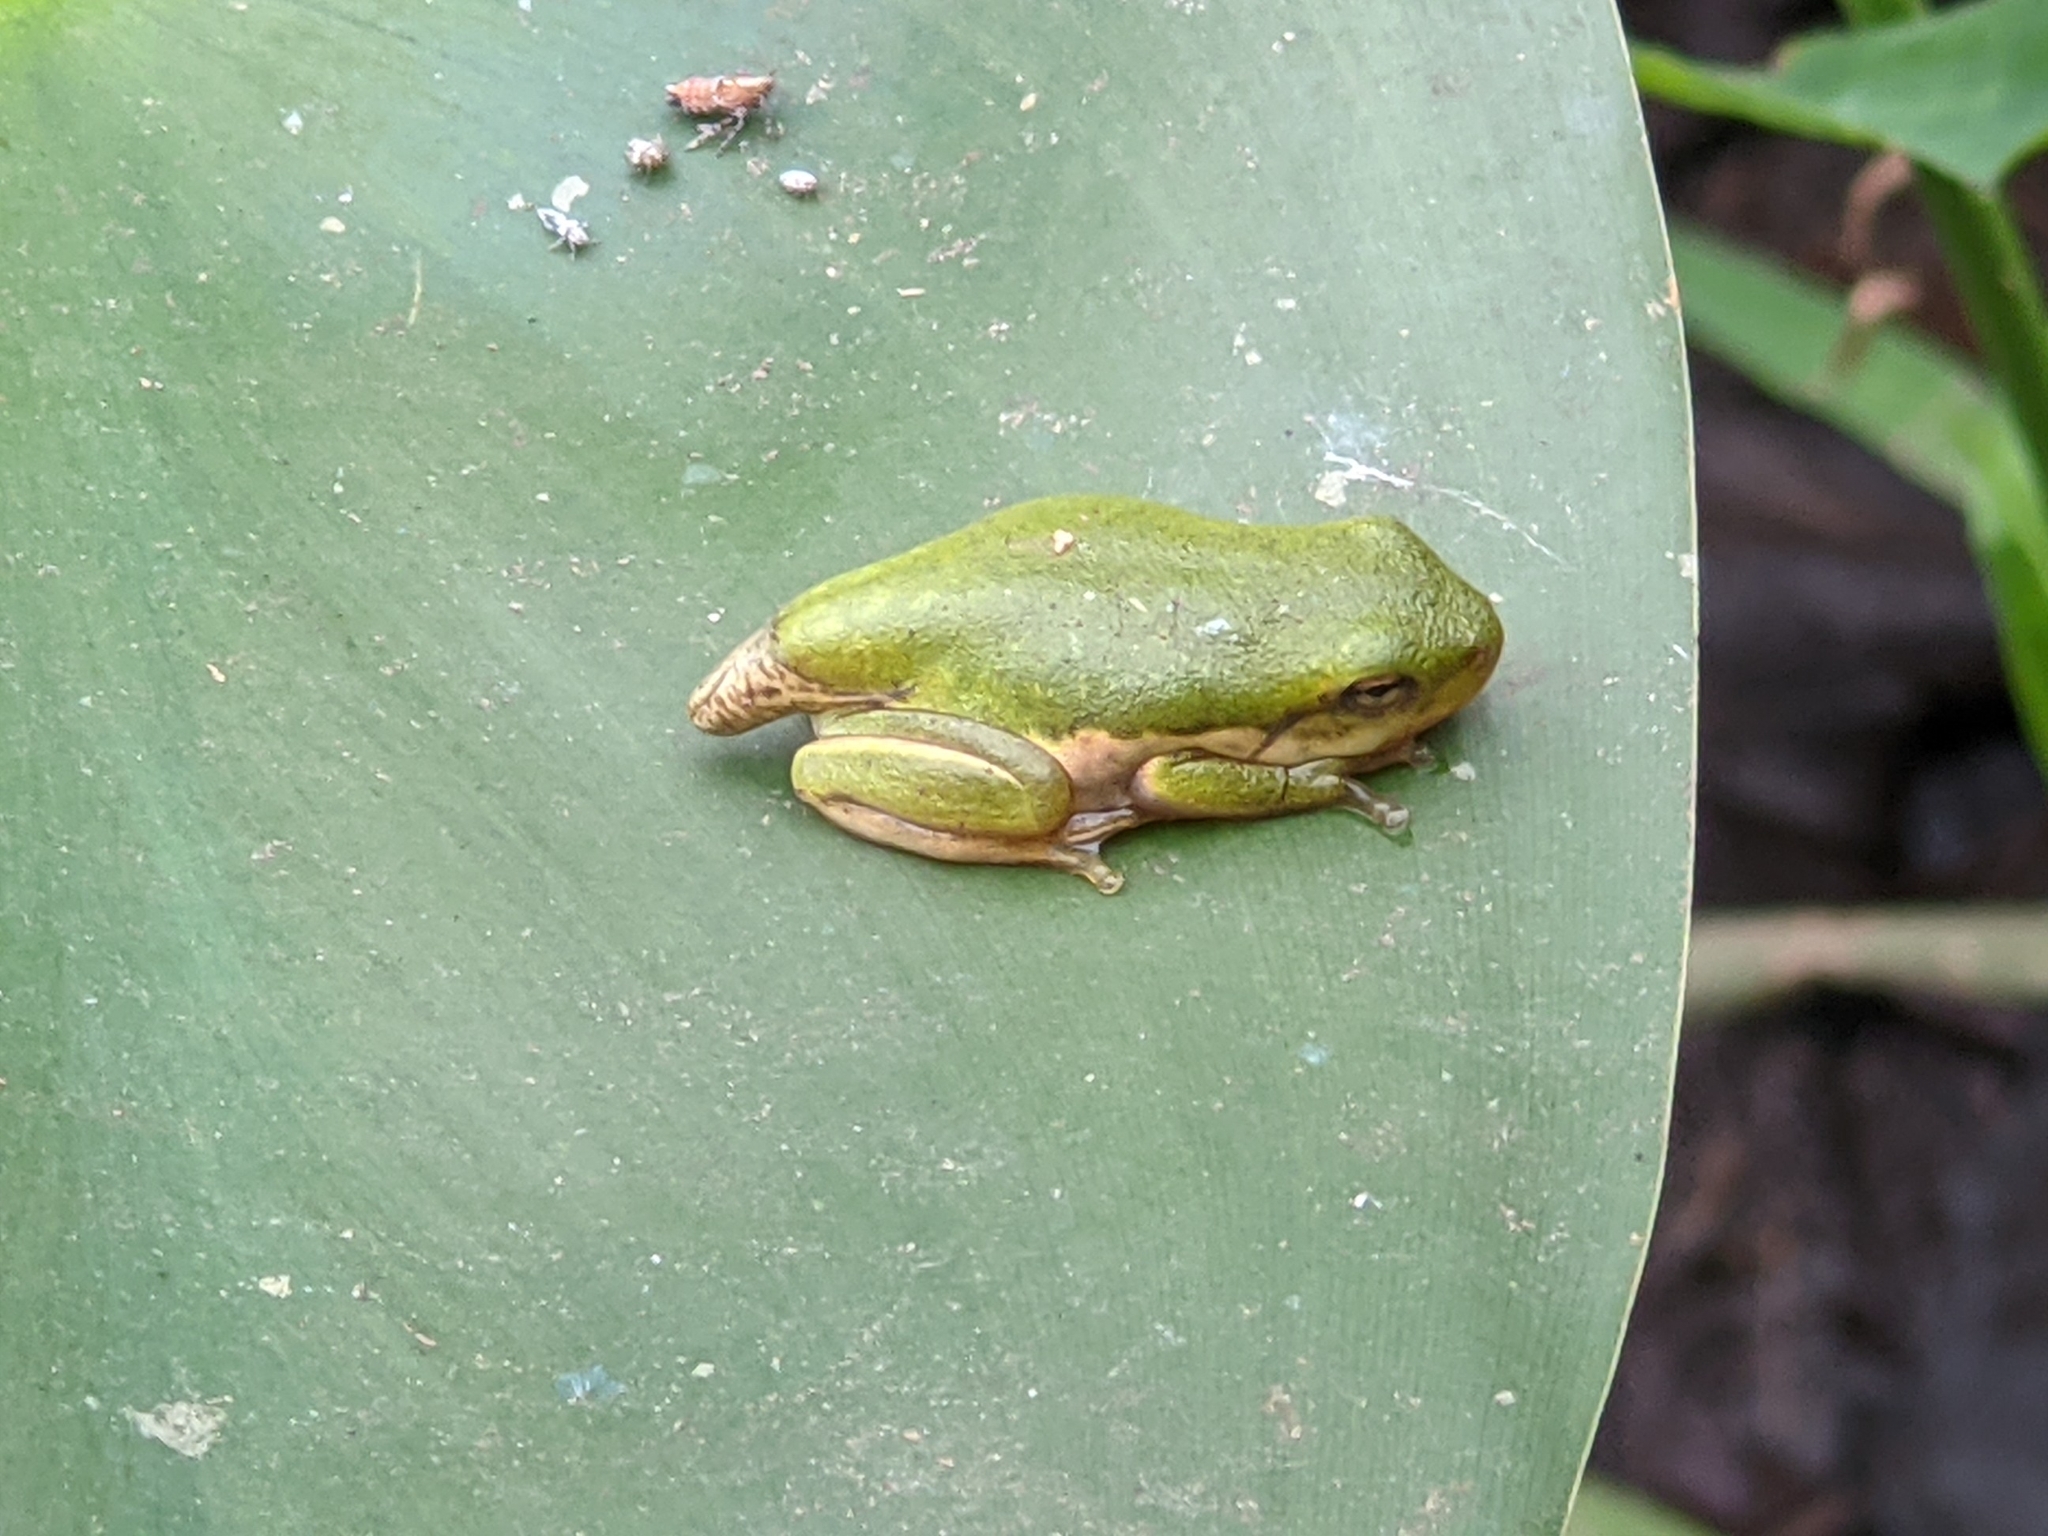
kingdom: Animalia
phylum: Chordata
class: Amphibia
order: Anura
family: Hylidae
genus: Dryophytes
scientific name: Dryophytes cinereus
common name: Green treefrog
